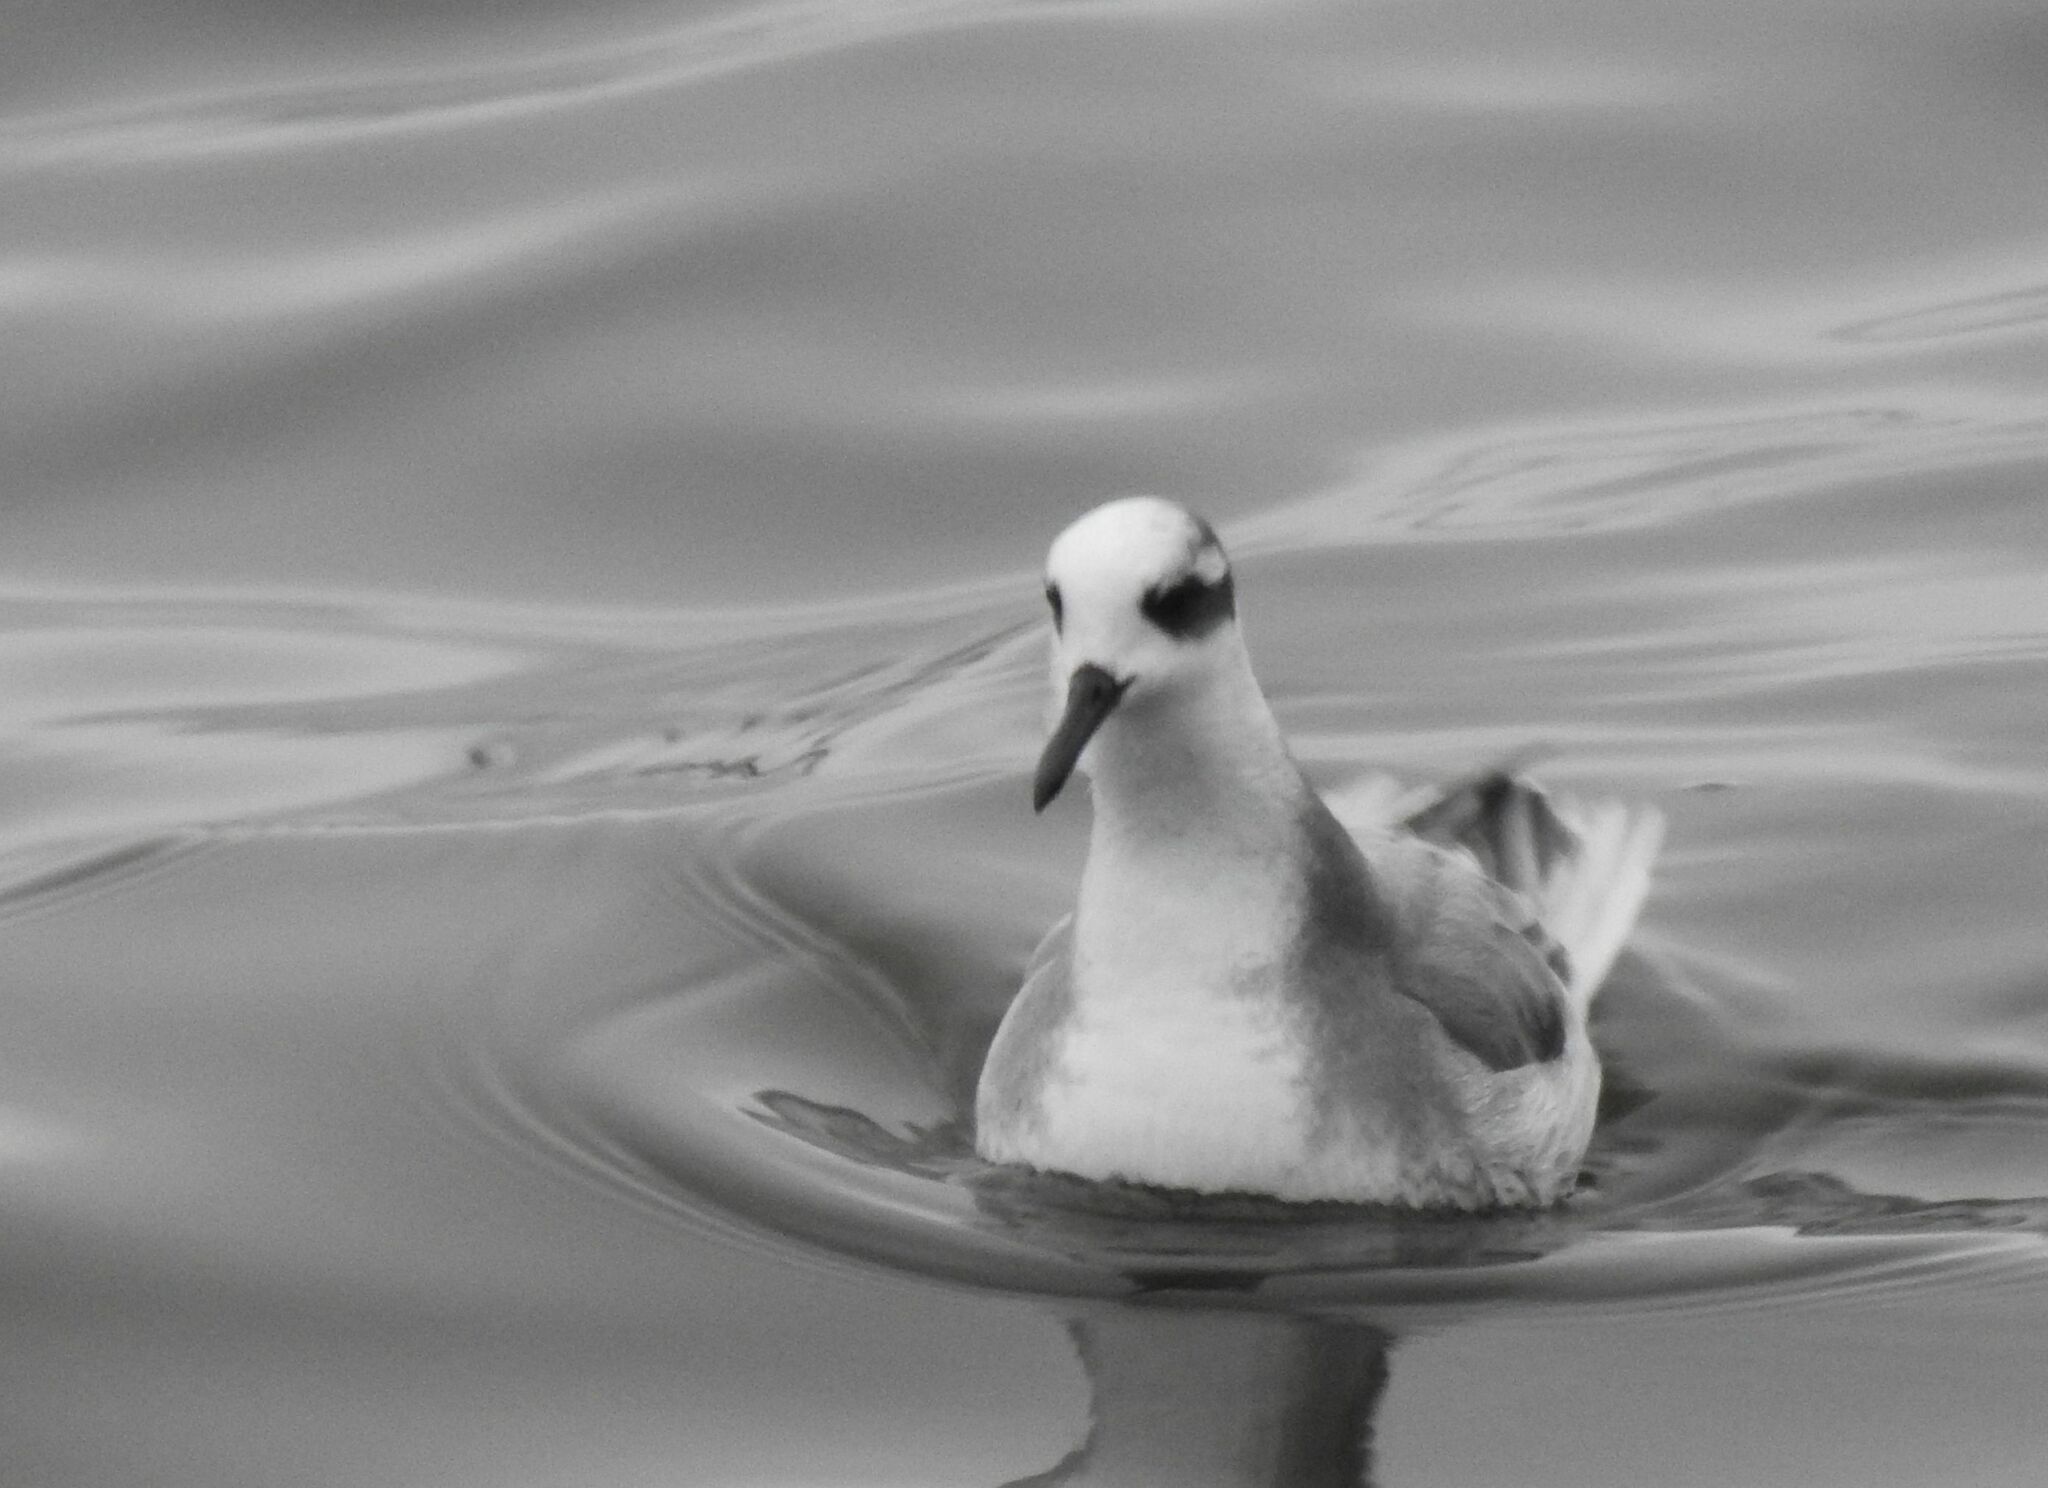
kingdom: Animalia
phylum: Chordata
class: Aves
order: Charadriiformes
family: Scolopacidae
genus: Phalaropus
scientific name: Phalaropus fulicarius
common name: Red phalarope
